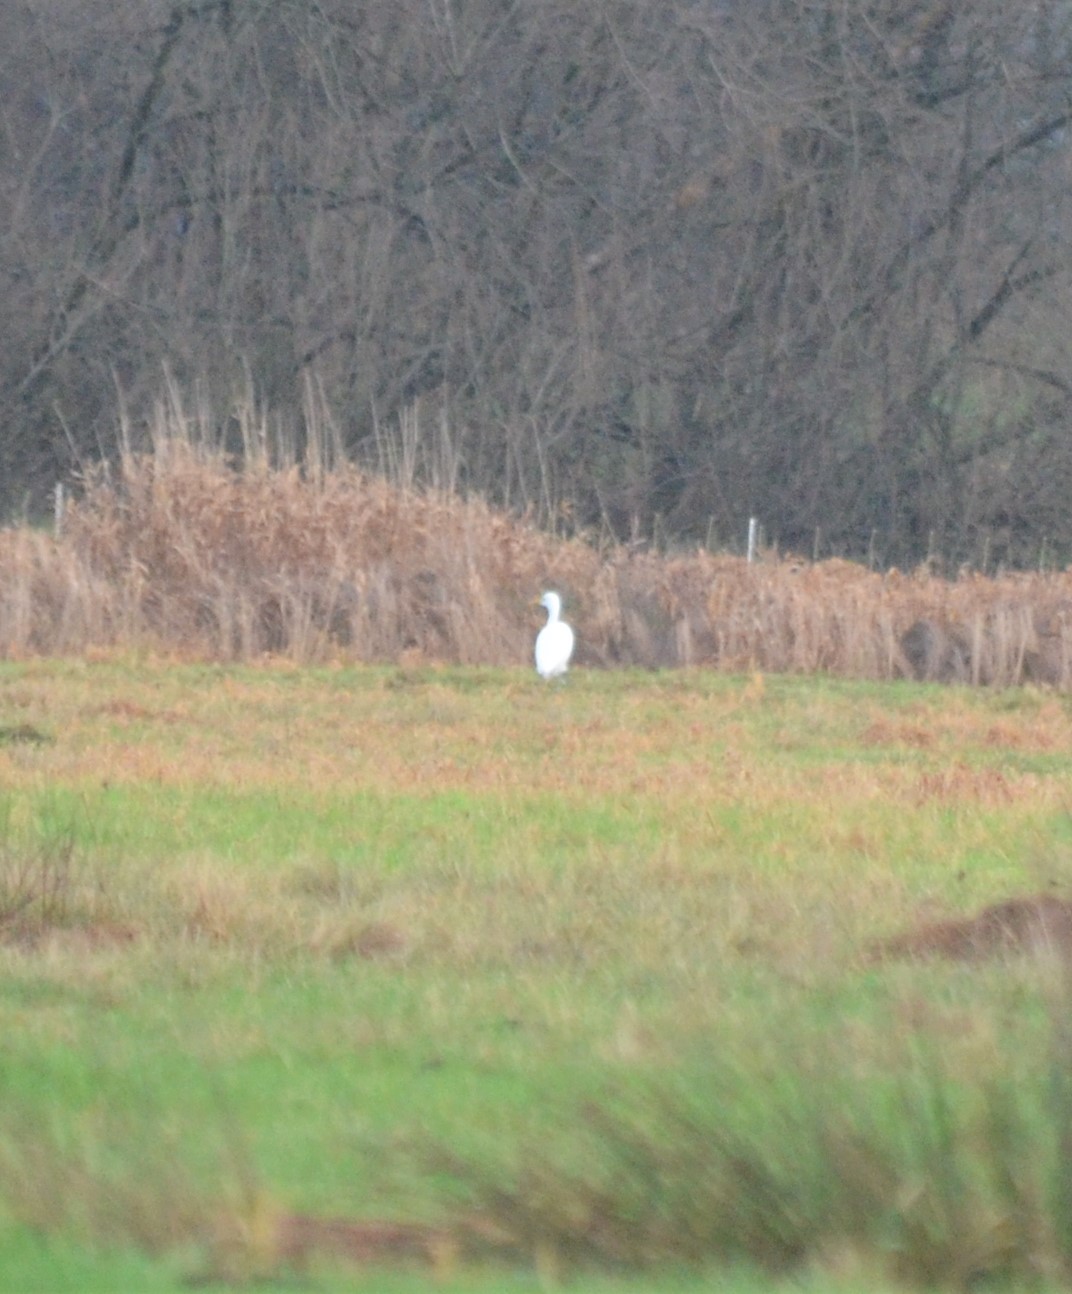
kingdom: Animalia
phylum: Chordata
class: Aves
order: Pelecaniformes
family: Ardeidae
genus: Ardea
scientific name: Ardea alba
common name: Great egret
